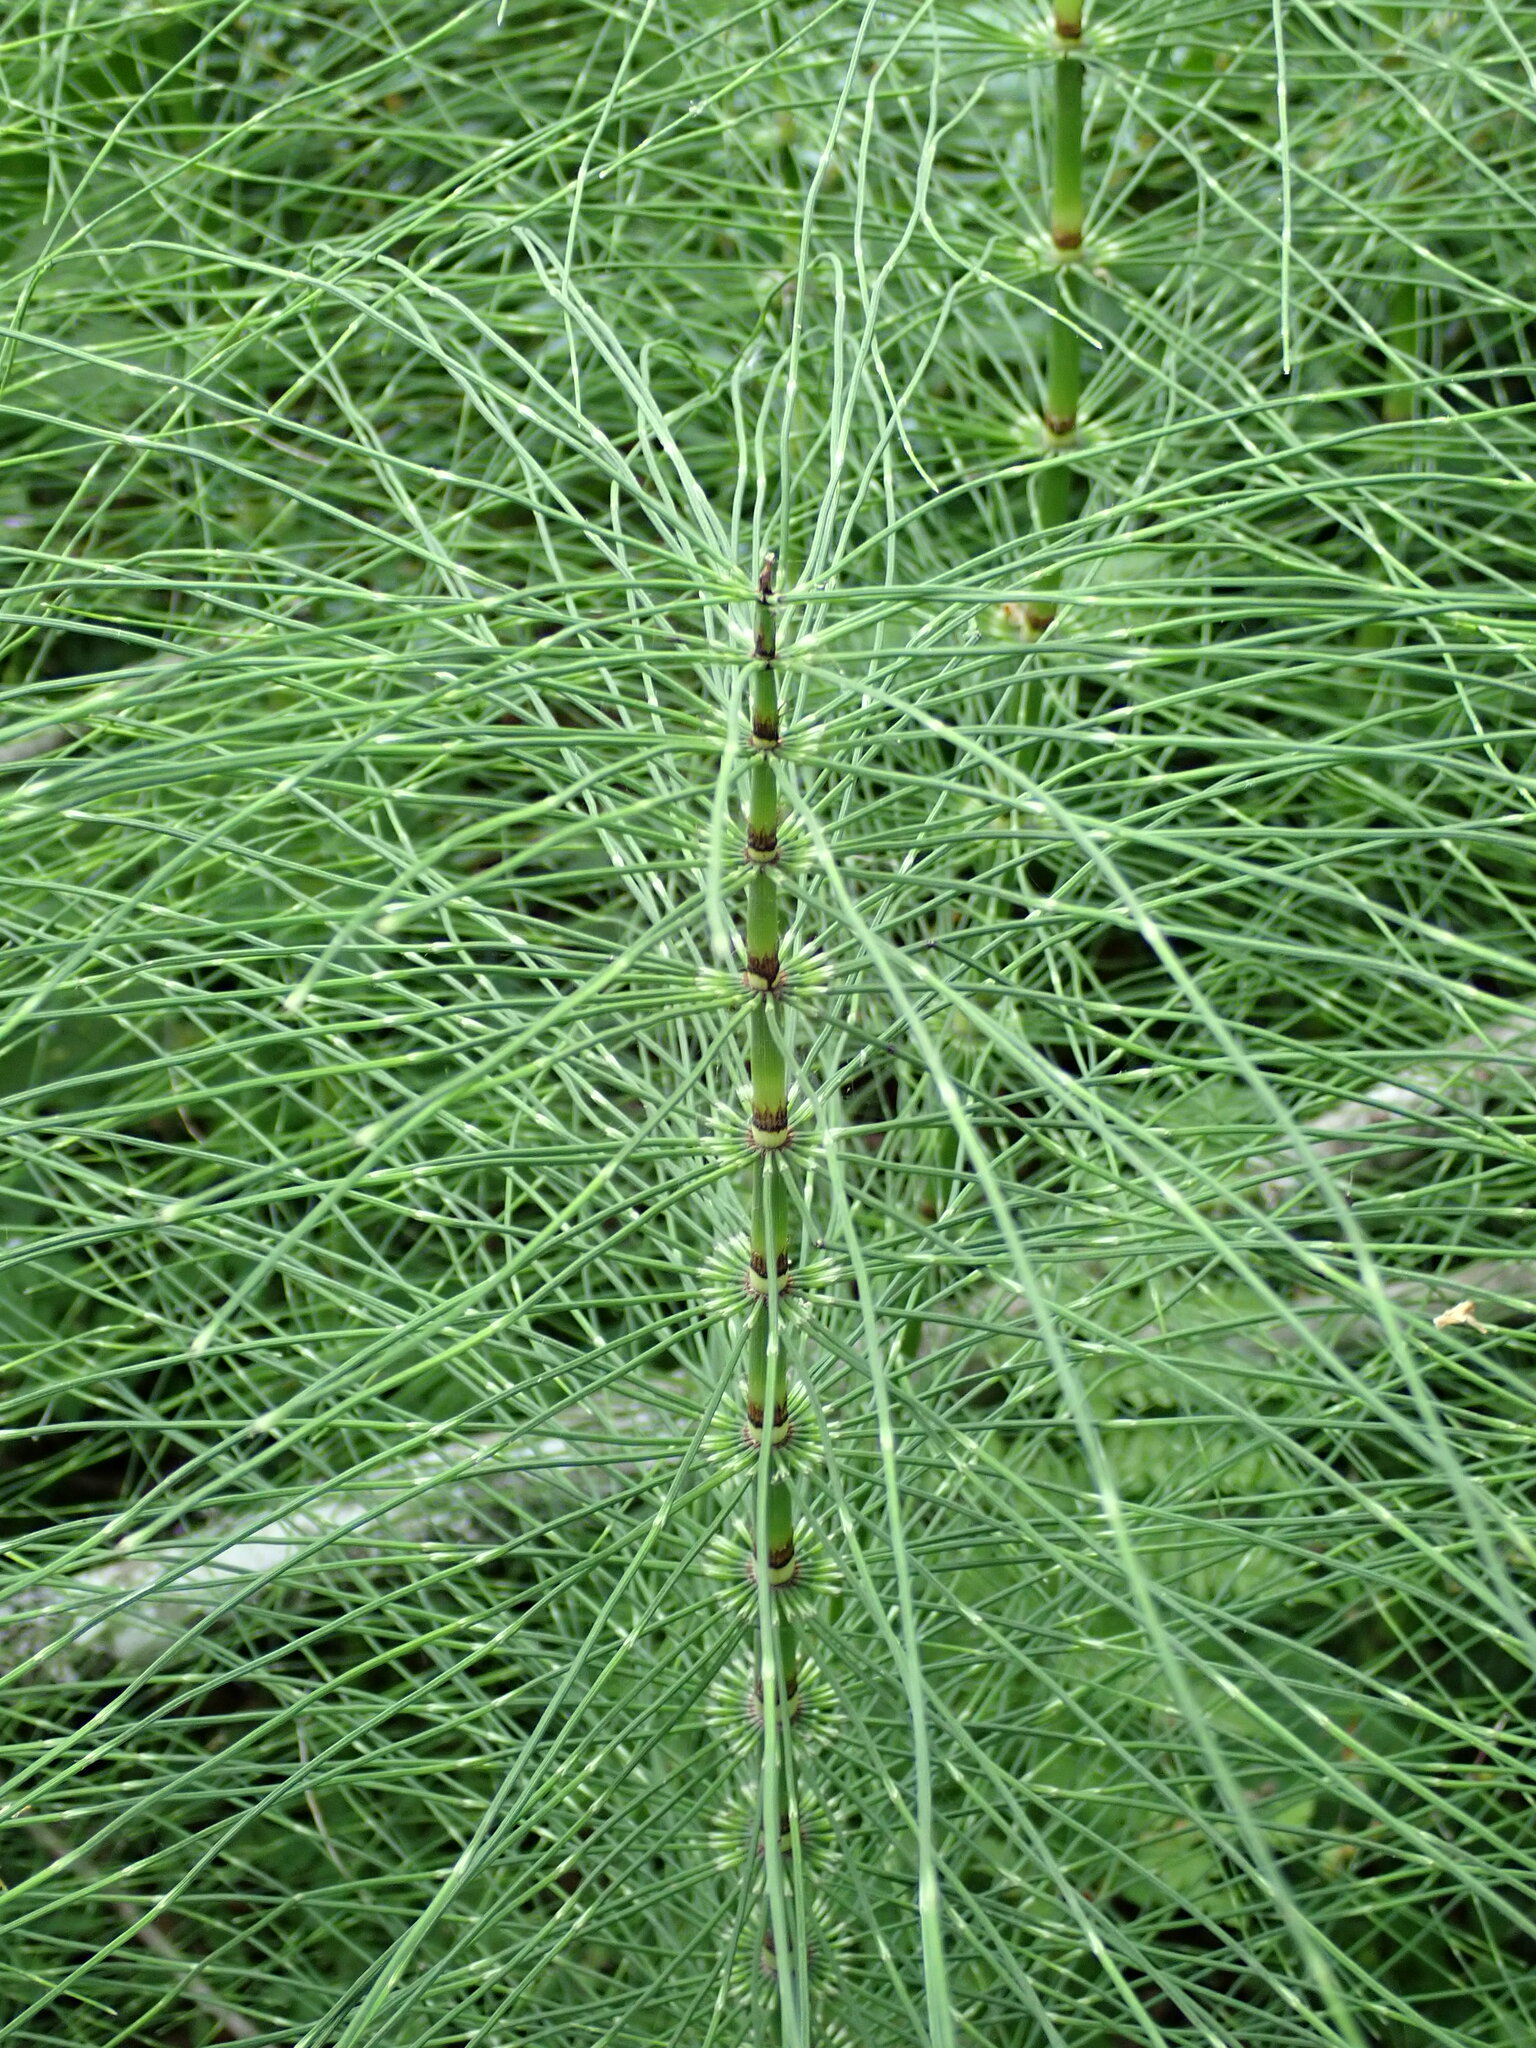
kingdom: Plantae
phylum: Tracheophyta
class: Polypodiopsida
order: Equisetales
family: Equisetaceae
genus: Equisetum
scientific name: Equisetum braunii
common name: Braun's horsetail
